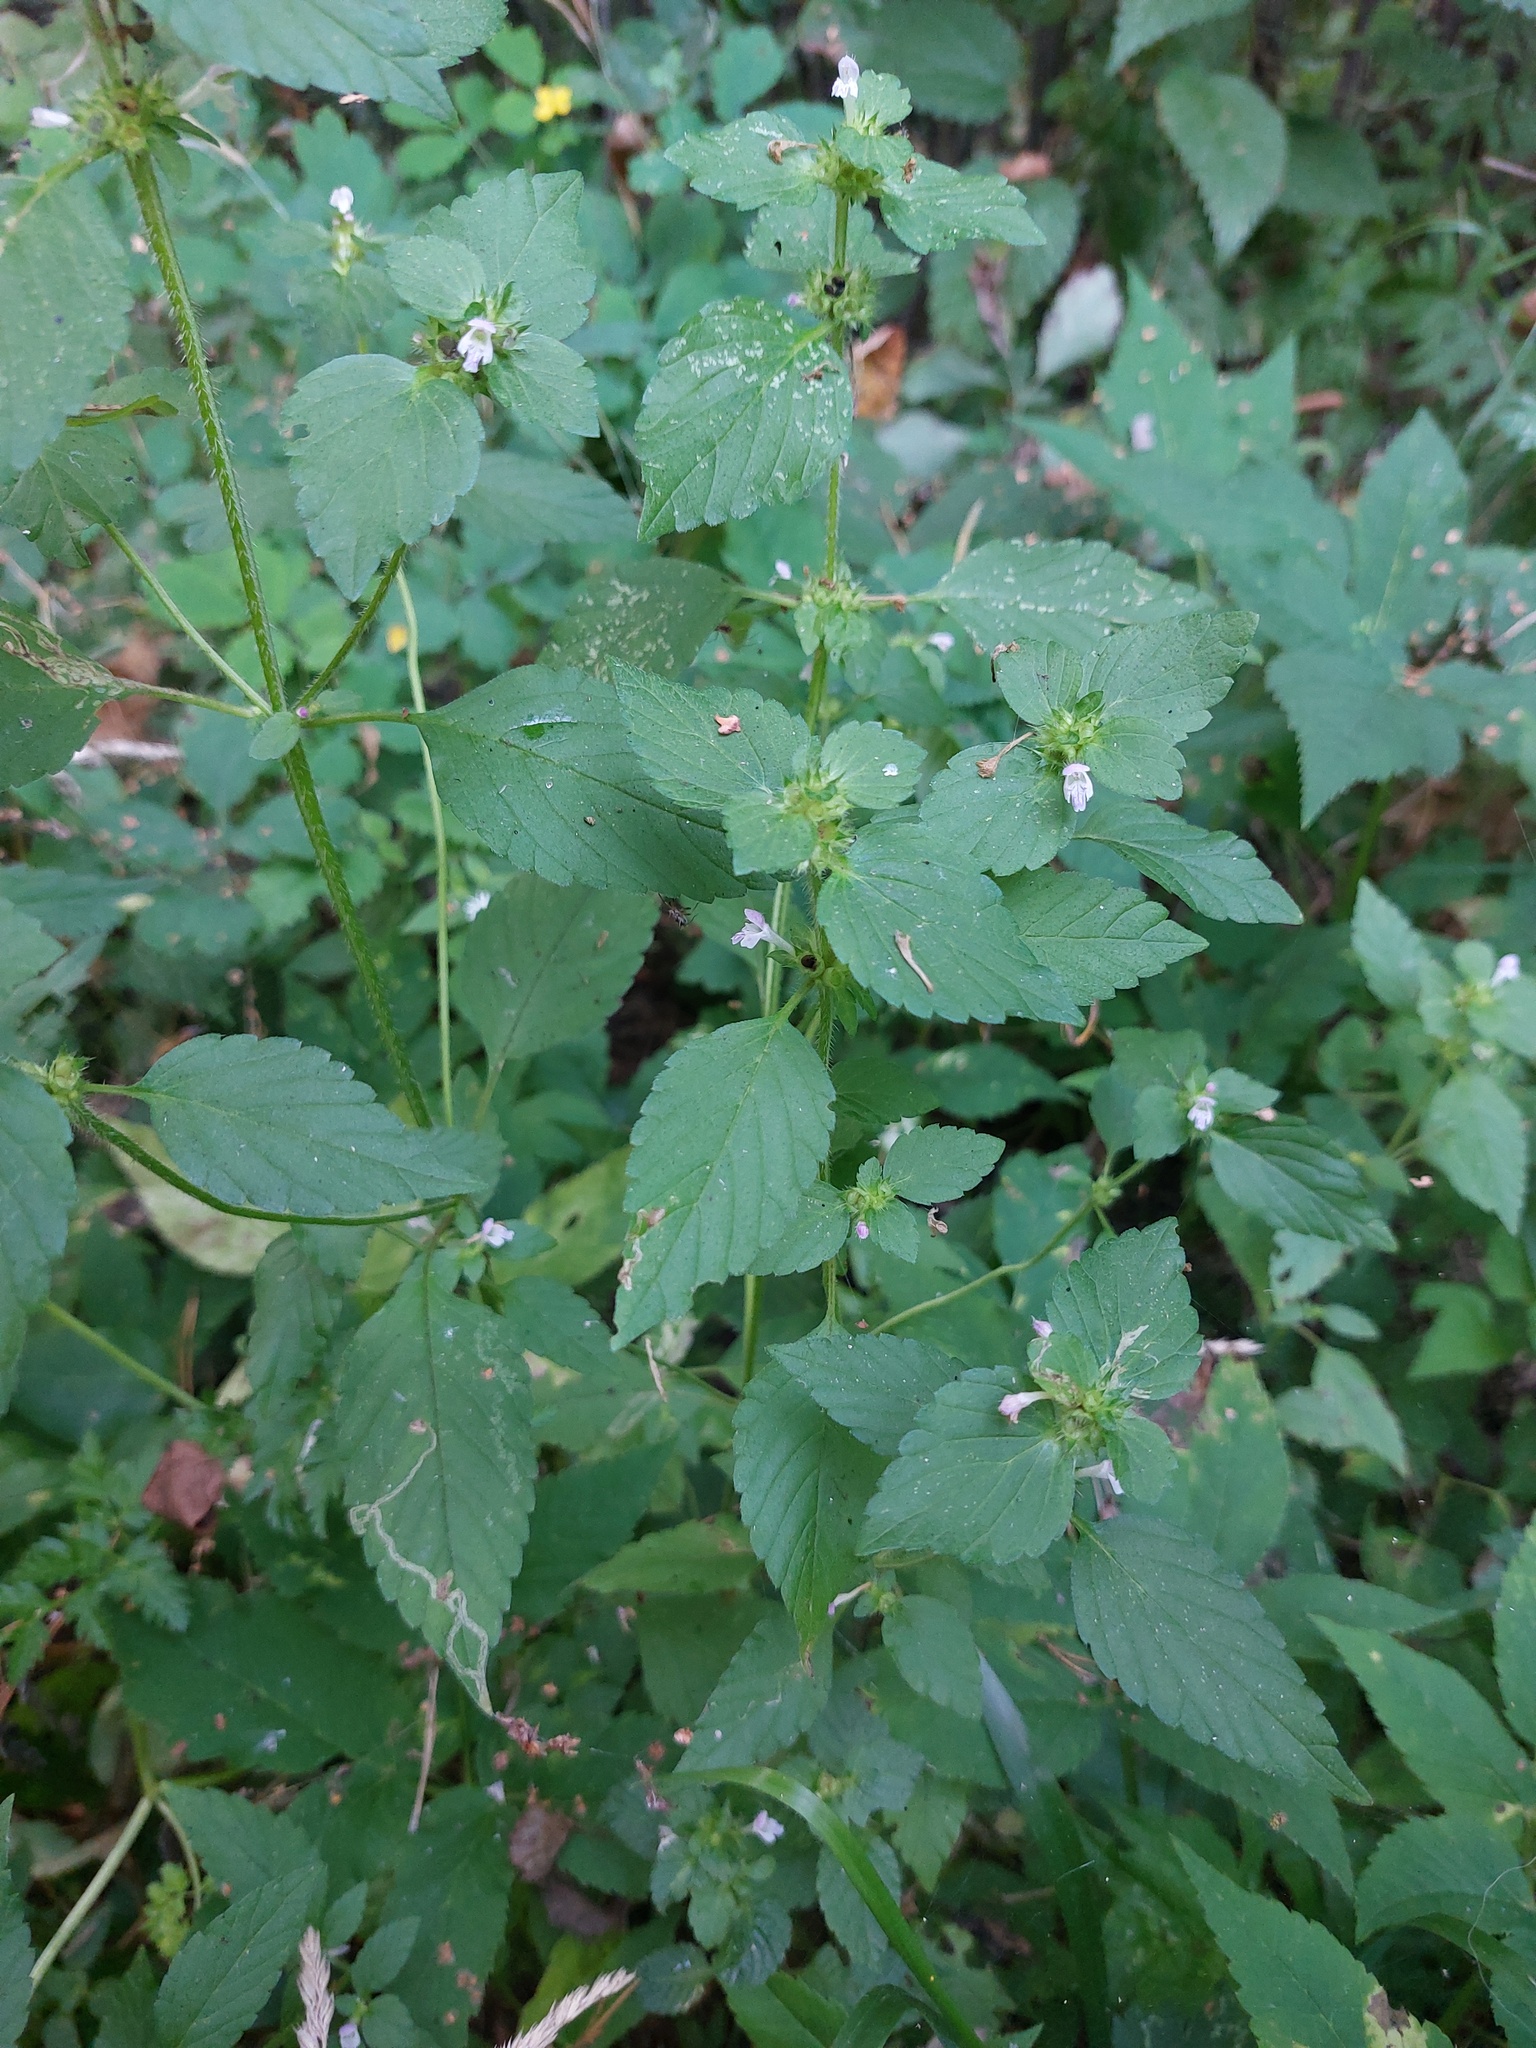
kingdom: Plantae
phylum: Tracheophyta
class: Magnoliopsida
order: Lamiales
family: Lamiaceae
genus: Galeopsis
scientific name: Galeopsis bifida
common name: Bifid hemp-nettle
